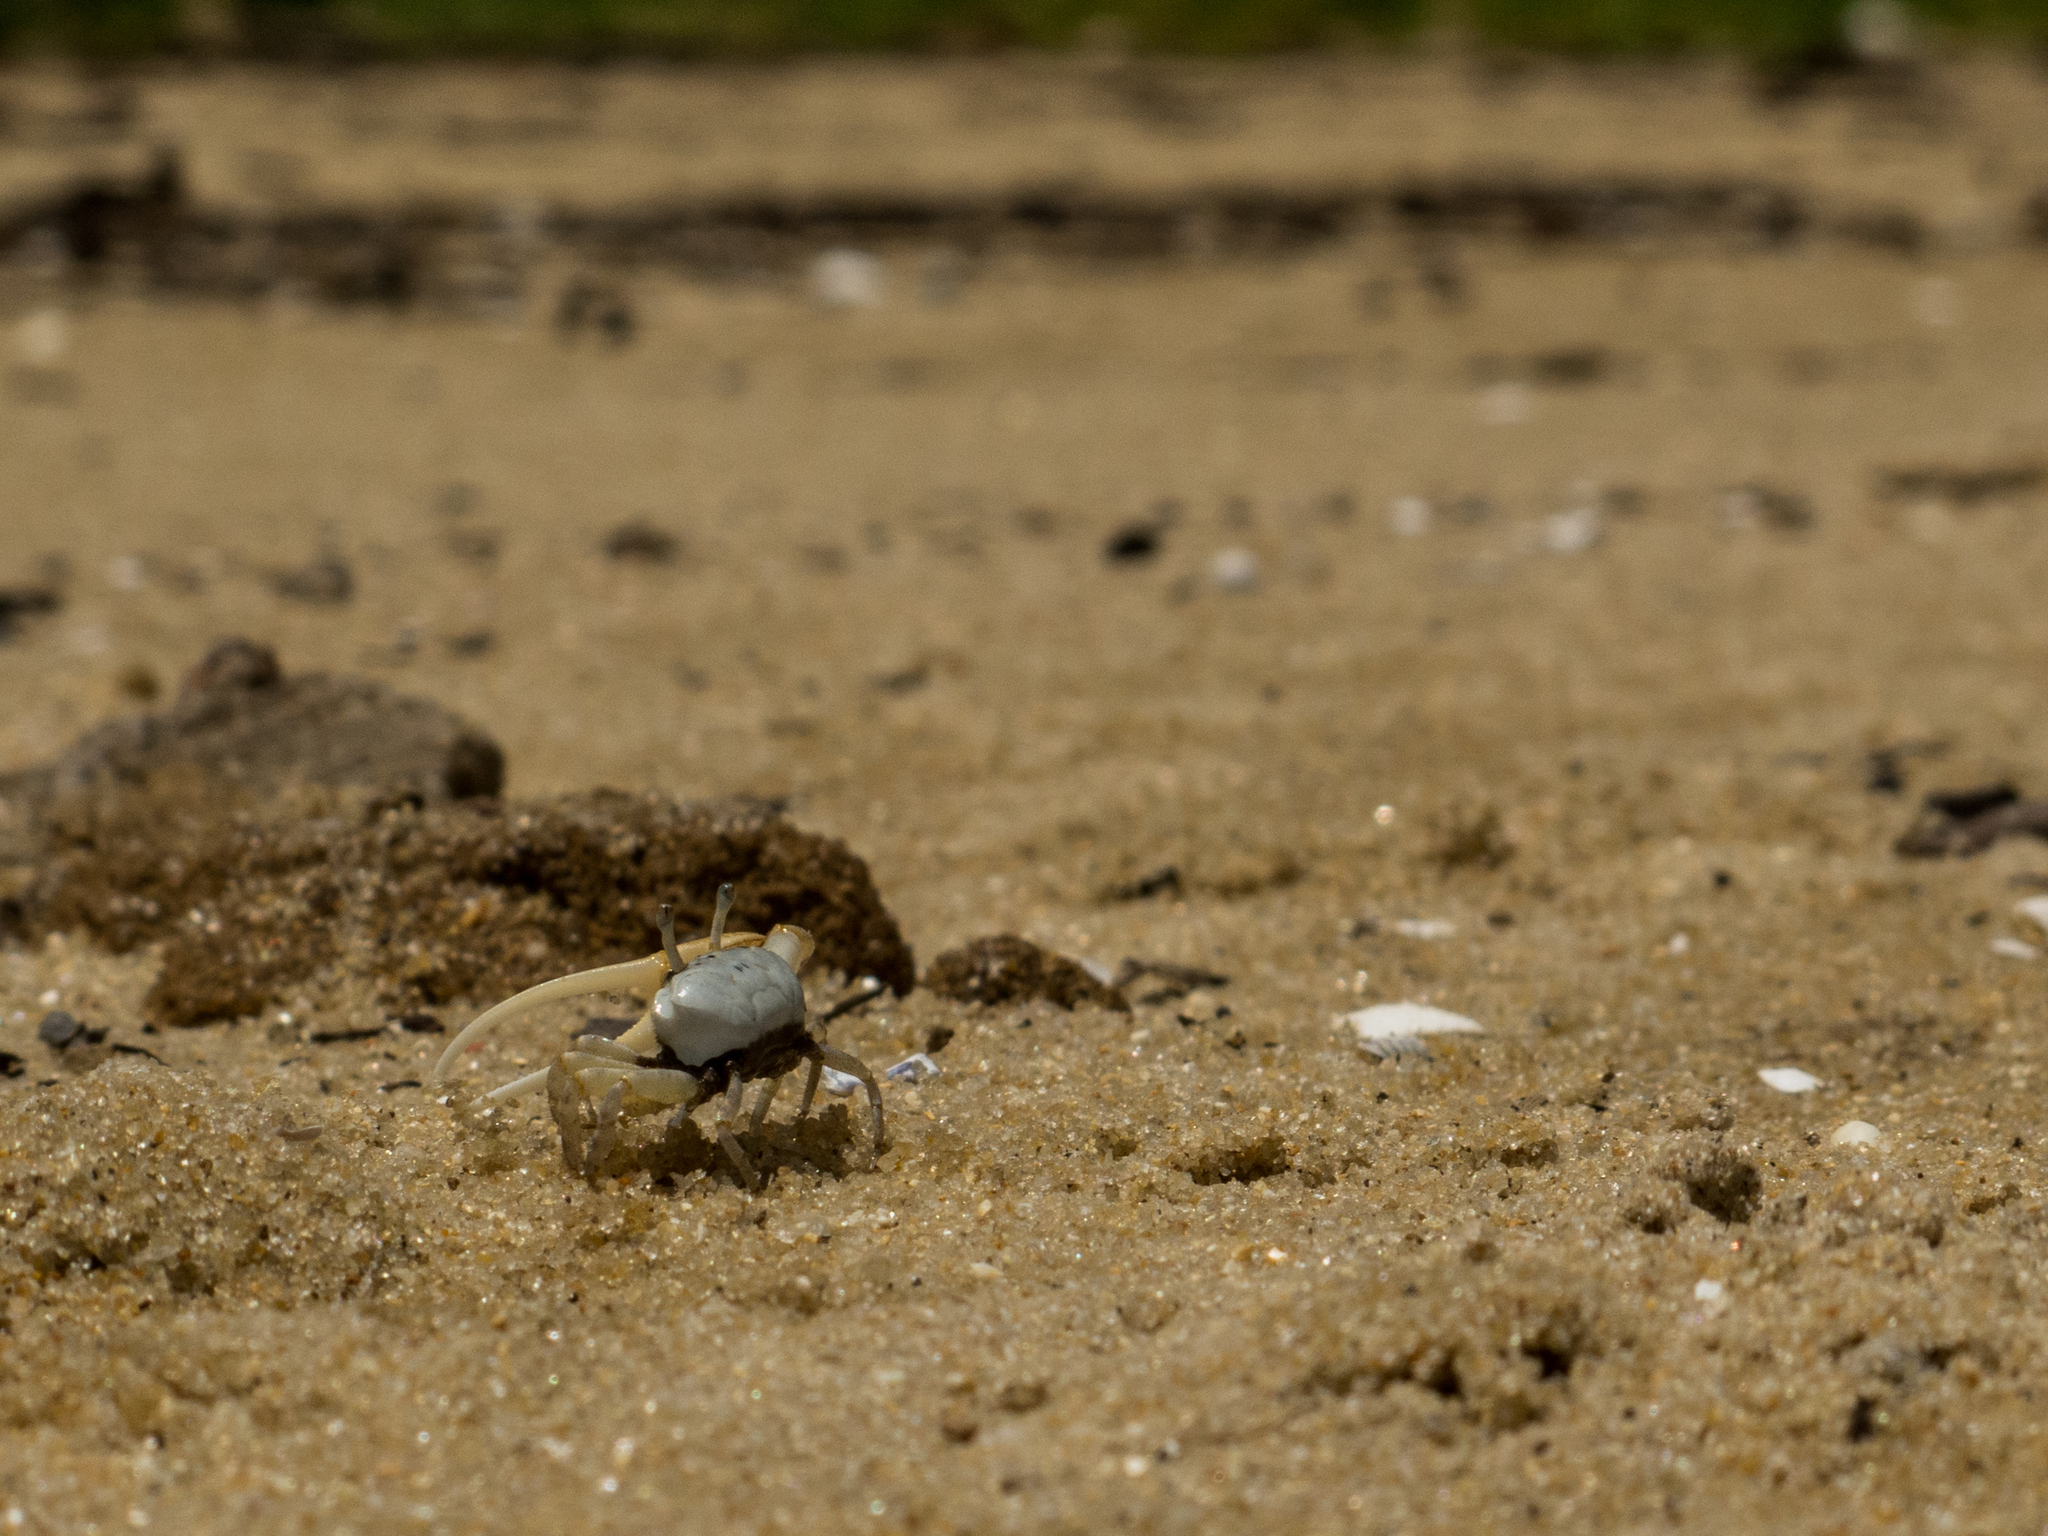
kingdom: Animalia
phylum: Arthropoda
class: Malacostraca
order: Decapoda
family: Ocypodidae
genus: Leptuca
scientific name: Leptuca leptodactyla
